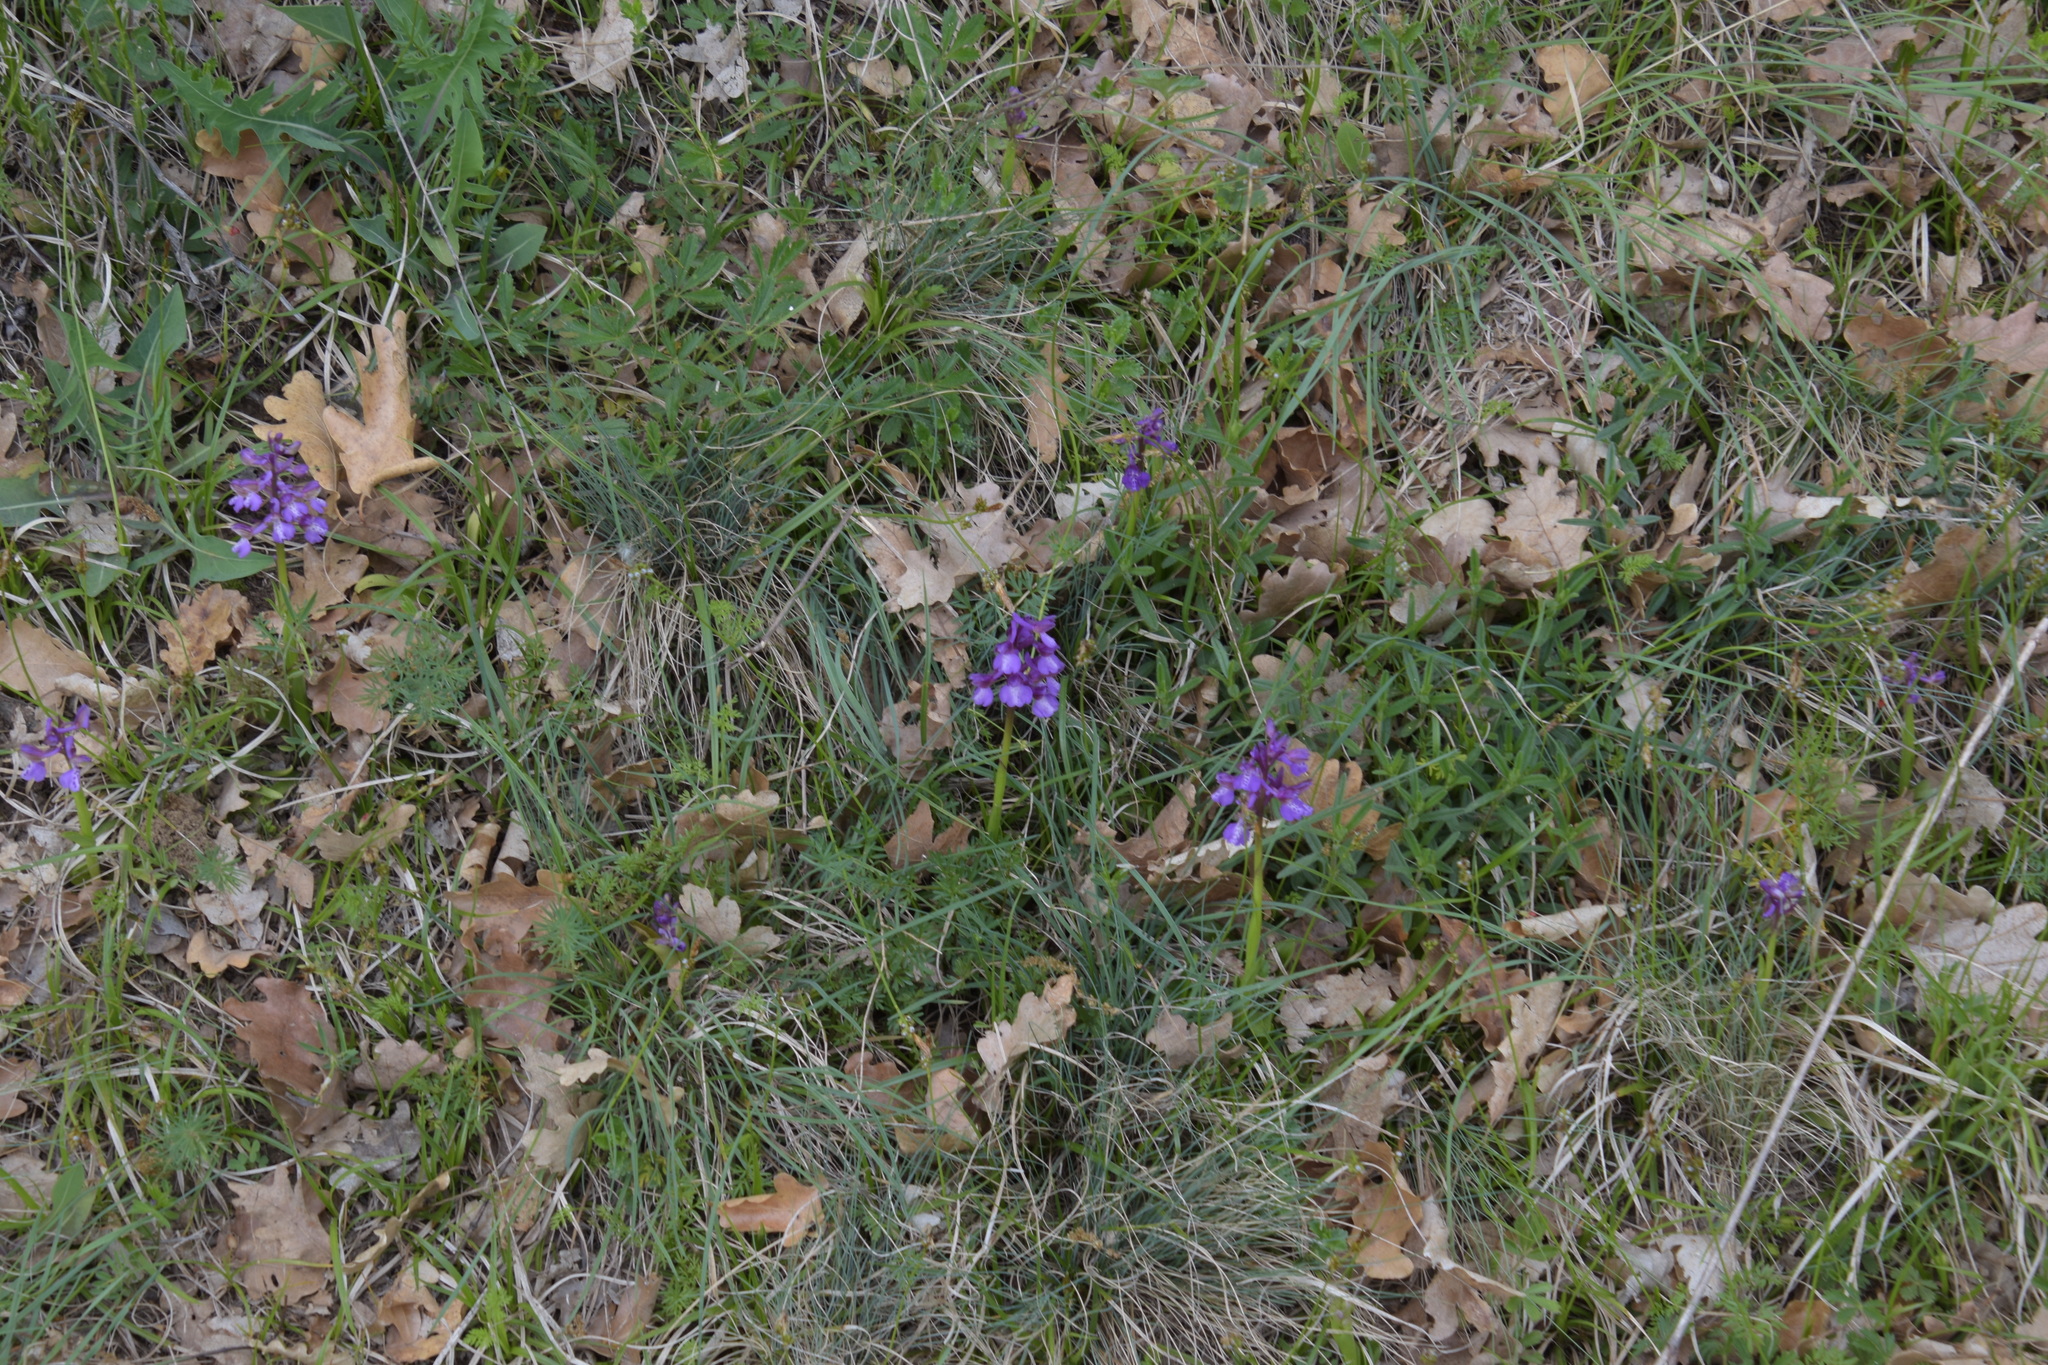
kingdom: Plantae
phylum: Tracheophyta
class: Liliopsida
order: Asparagales
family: Orchidaceae
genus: Anacamptis
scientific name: Anacamptis morio
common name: Green-winged orchid
